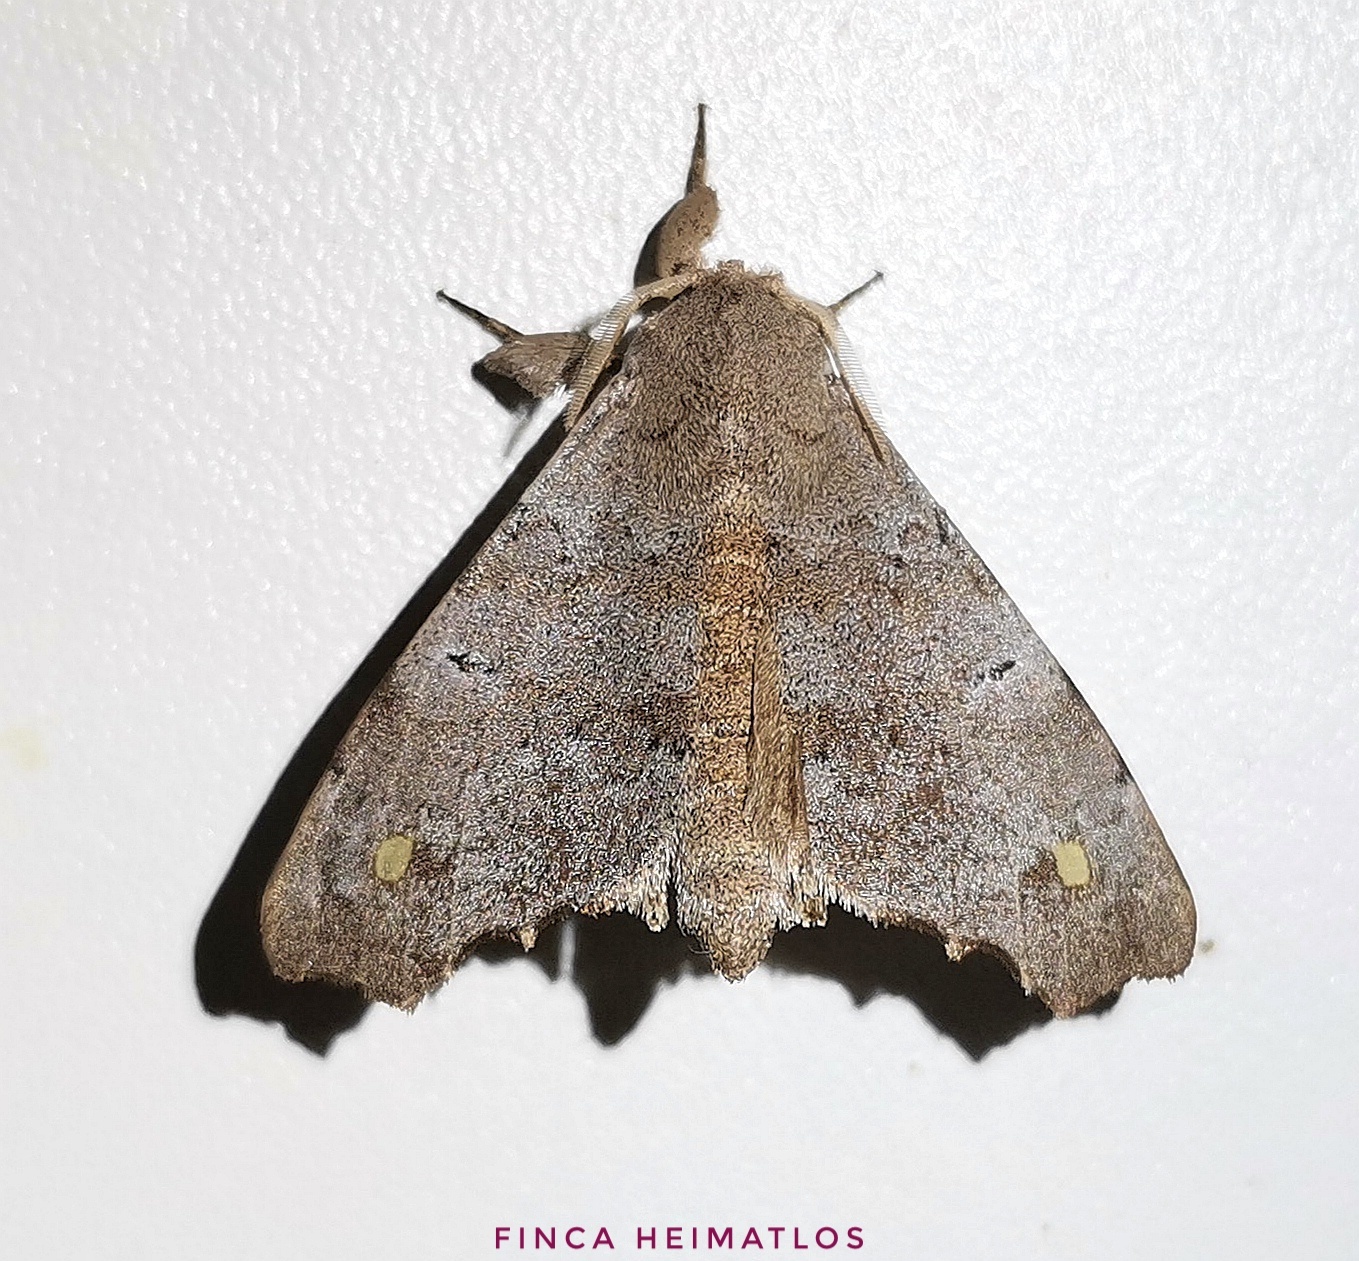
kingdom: Animalia
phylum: Arthropoda
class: Insecta
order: Lepidoptera
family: Apatelodidae
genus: Olceclostera
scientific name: Olceclostera magniplaga
